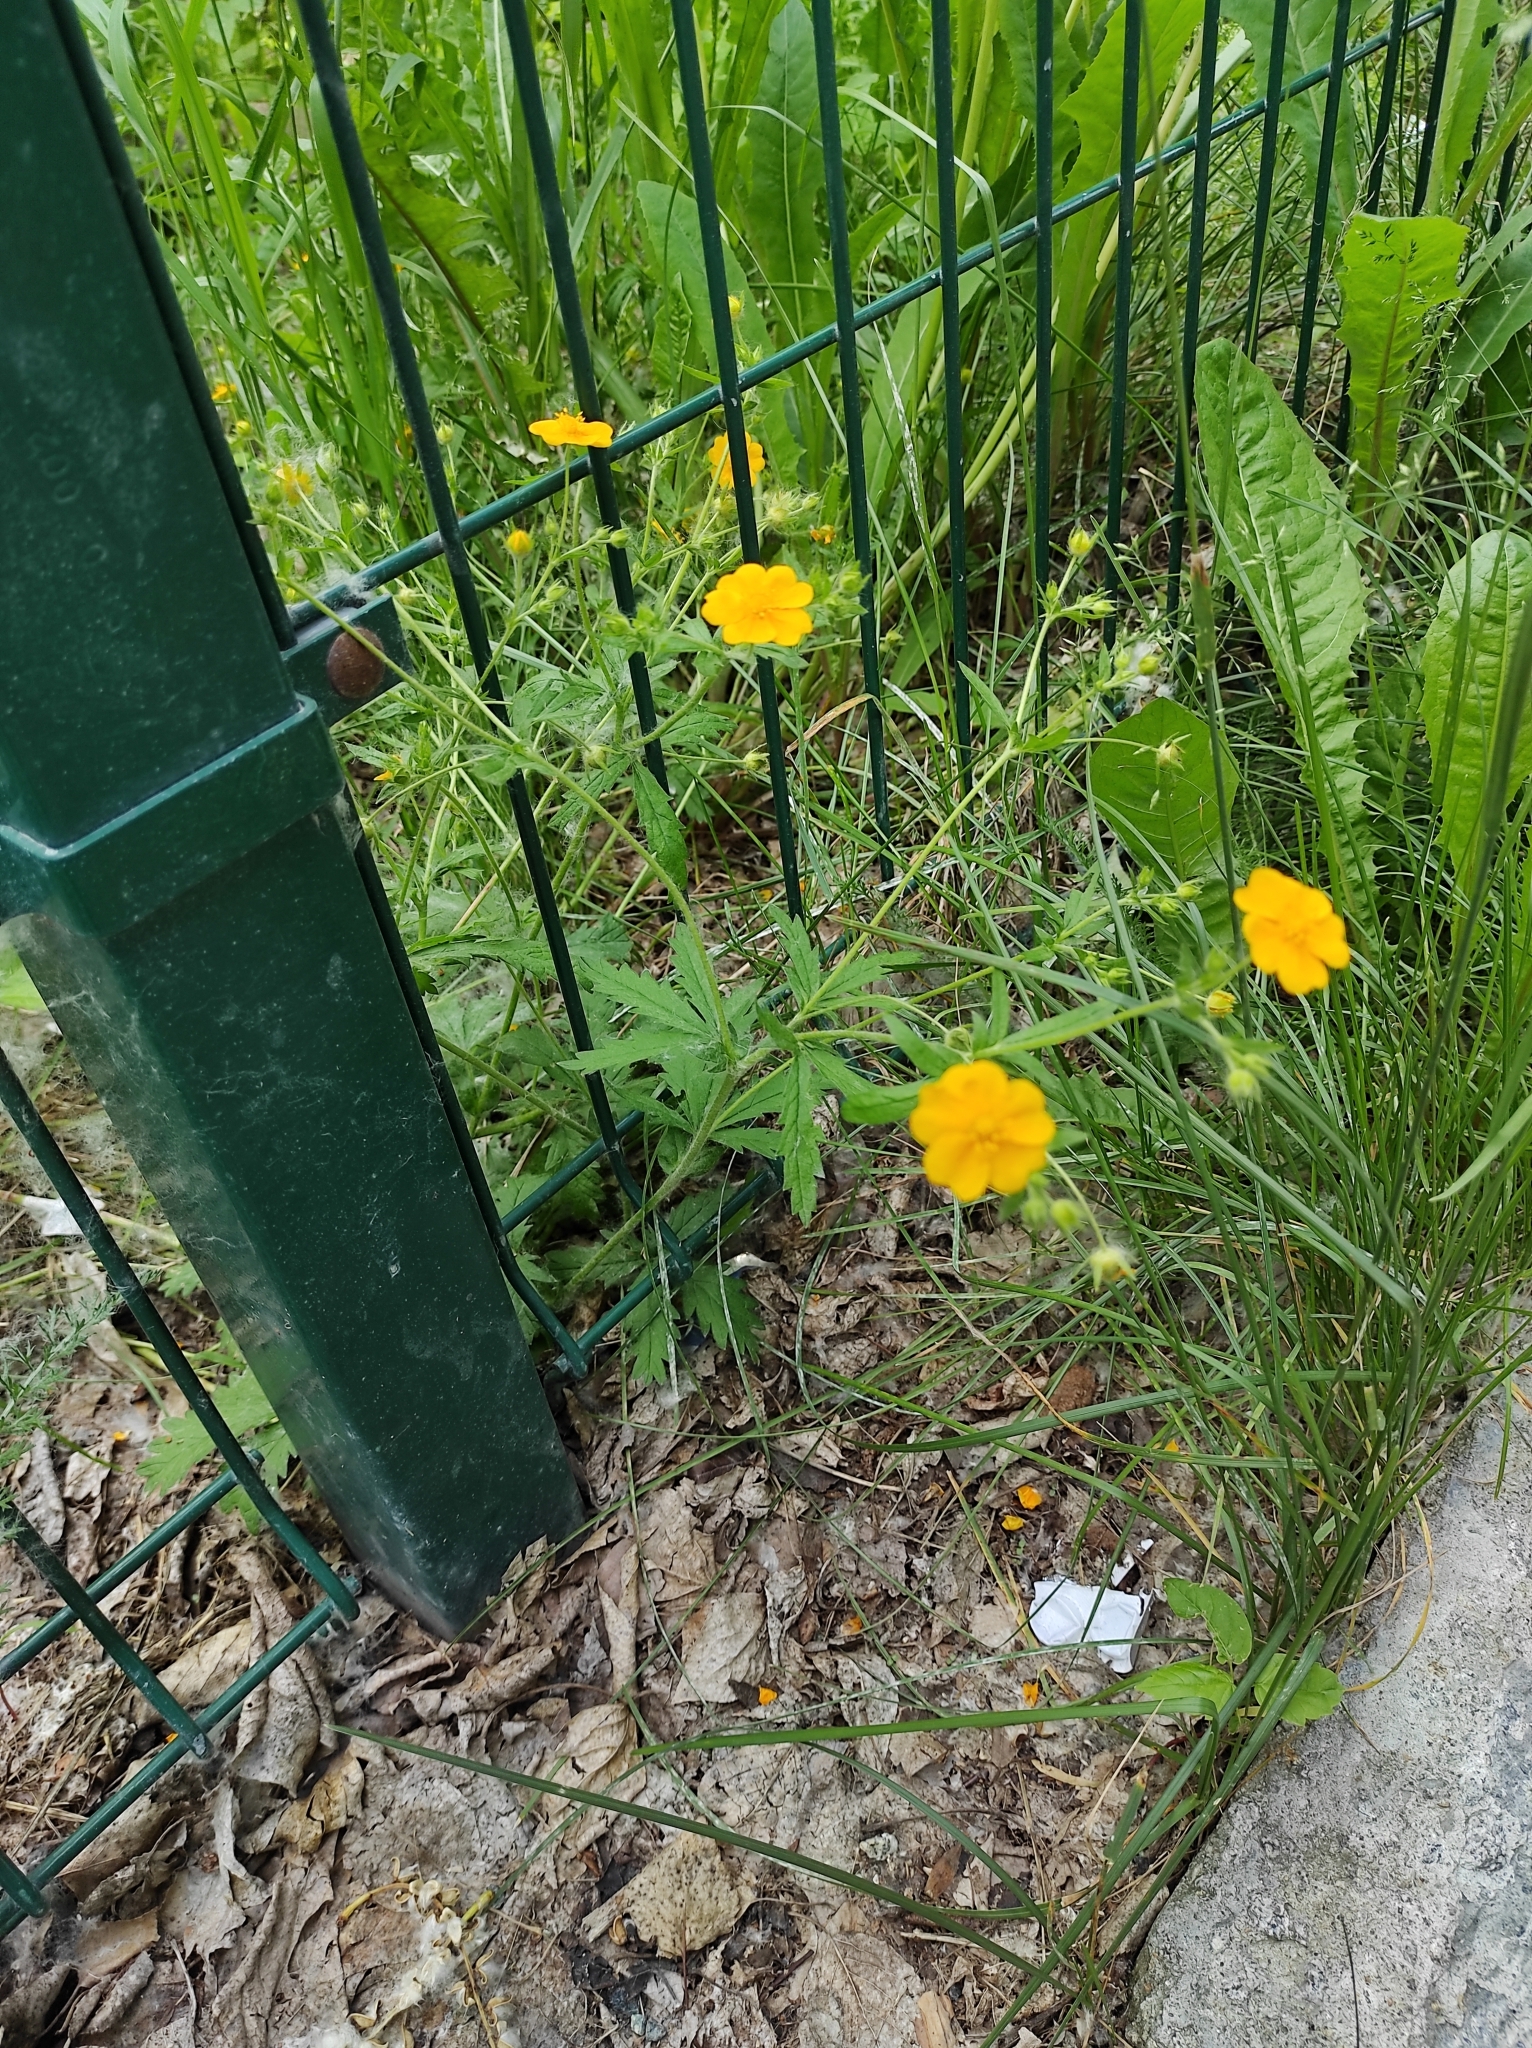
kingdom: Plantae
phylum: Tracheophyta
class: Magnoliopsida
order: Rosales
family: Rosaceae
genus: Potentilla
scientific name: Potentilla thuringiaca
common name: European cinquefoil
